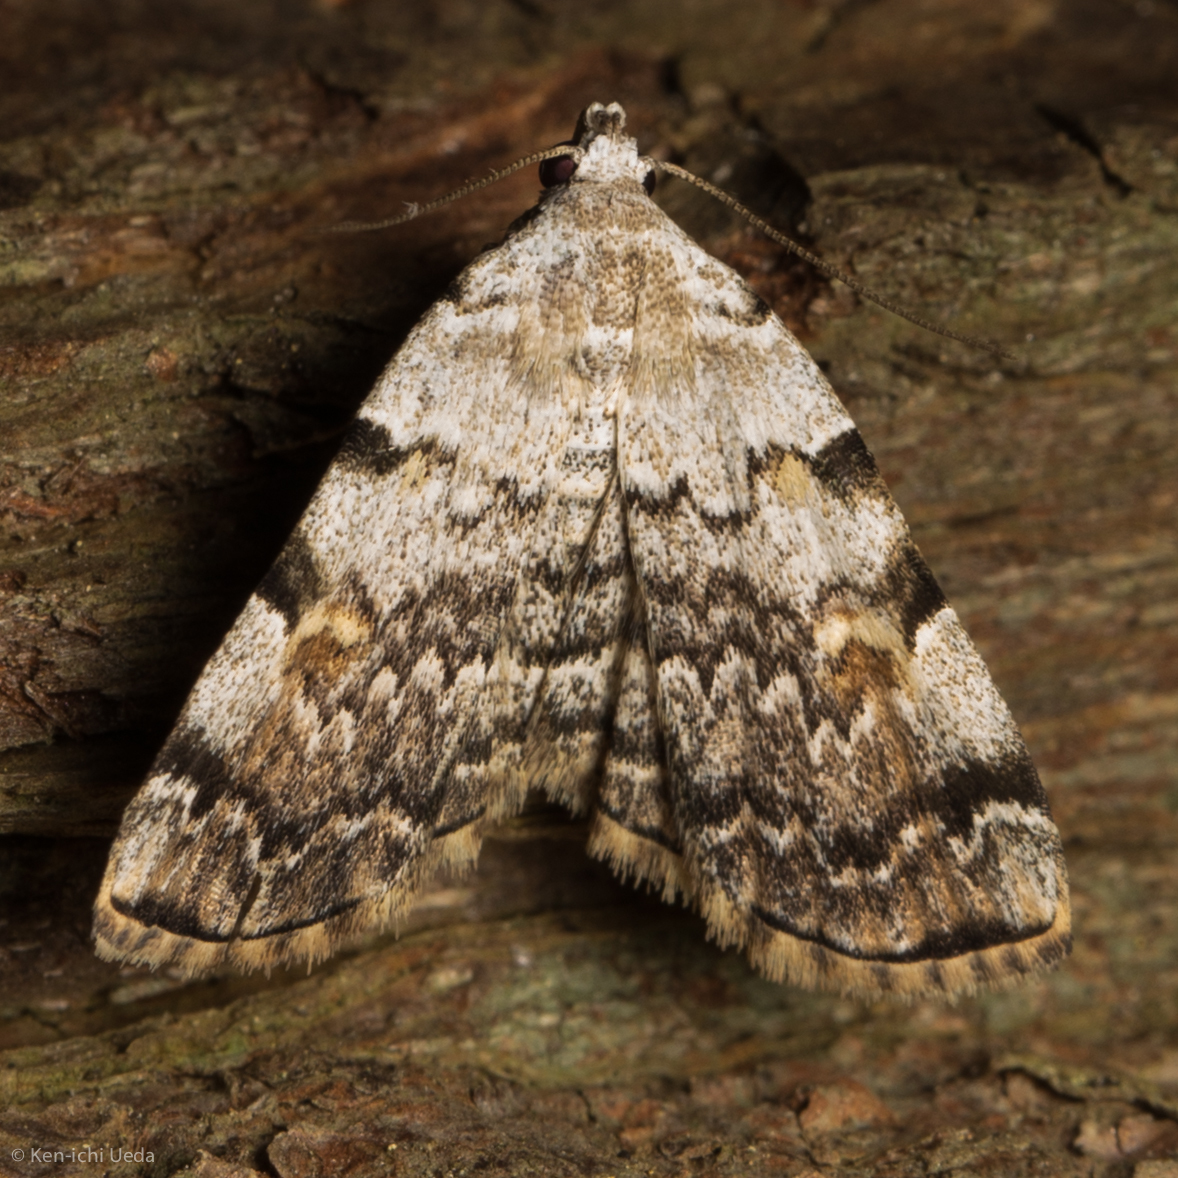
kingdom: Animalia
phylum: Arthropoda
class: Insecta
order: Lepidoptera
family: Erebidae
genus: Idia
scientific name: Idia americalis
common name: American idia moth
